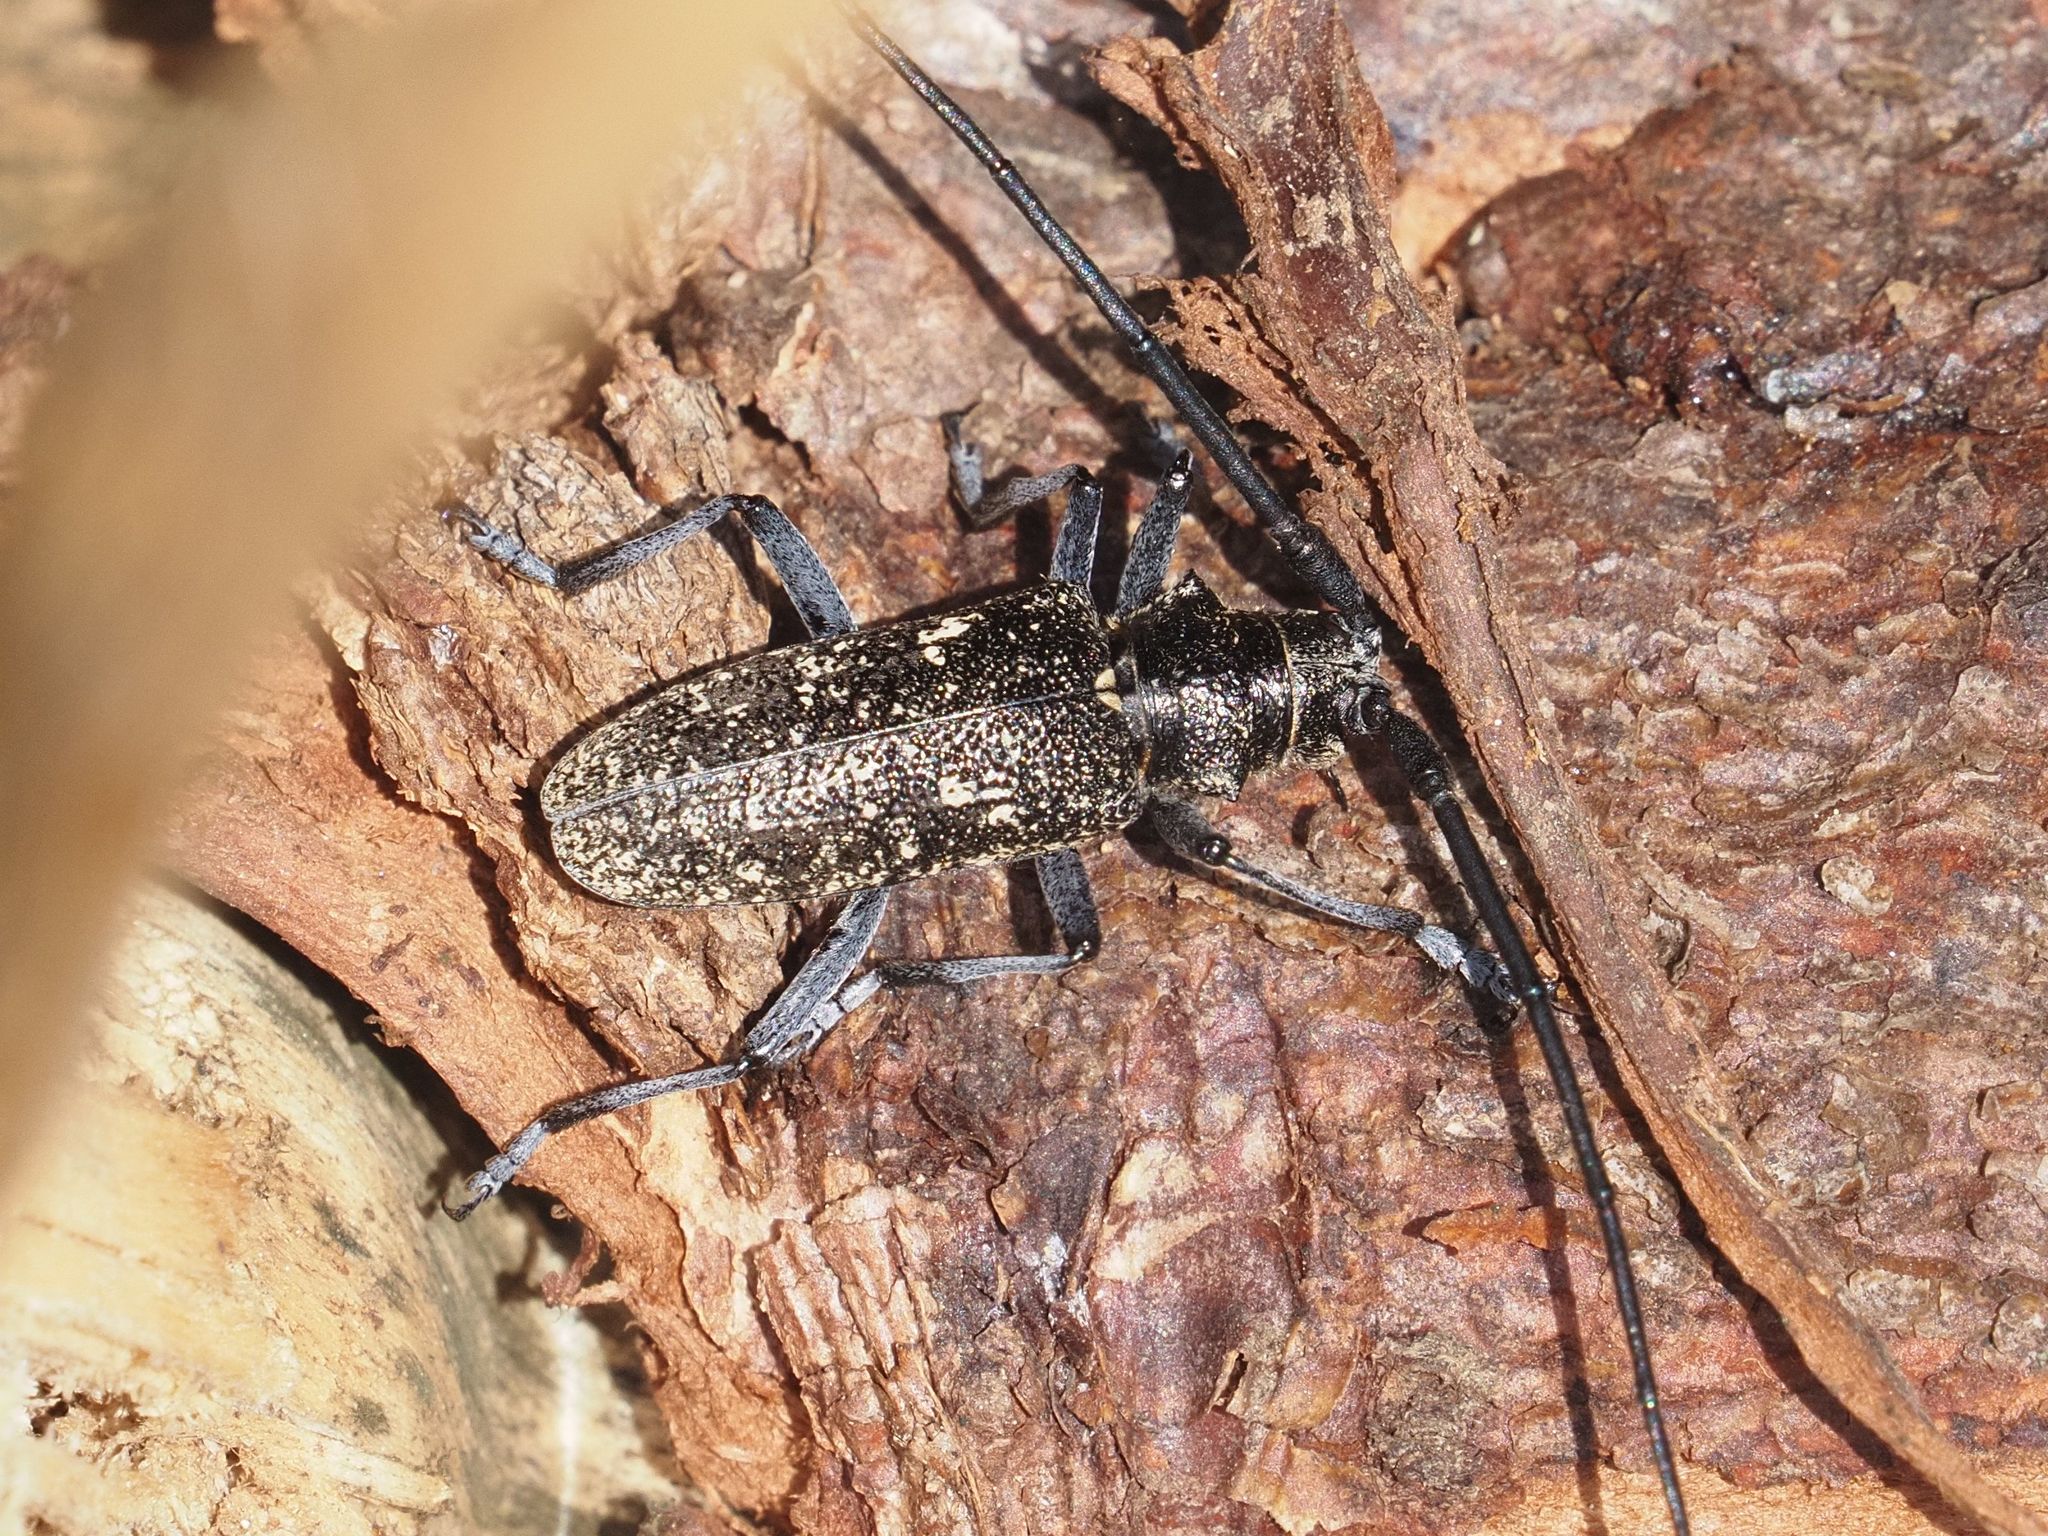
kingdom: Animalia
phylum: Arthropoda
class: Insecta
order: Coleoptera
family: Cerambycidae
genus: Monochamus
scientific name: Monochamus sutor
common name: Pine sawyer
